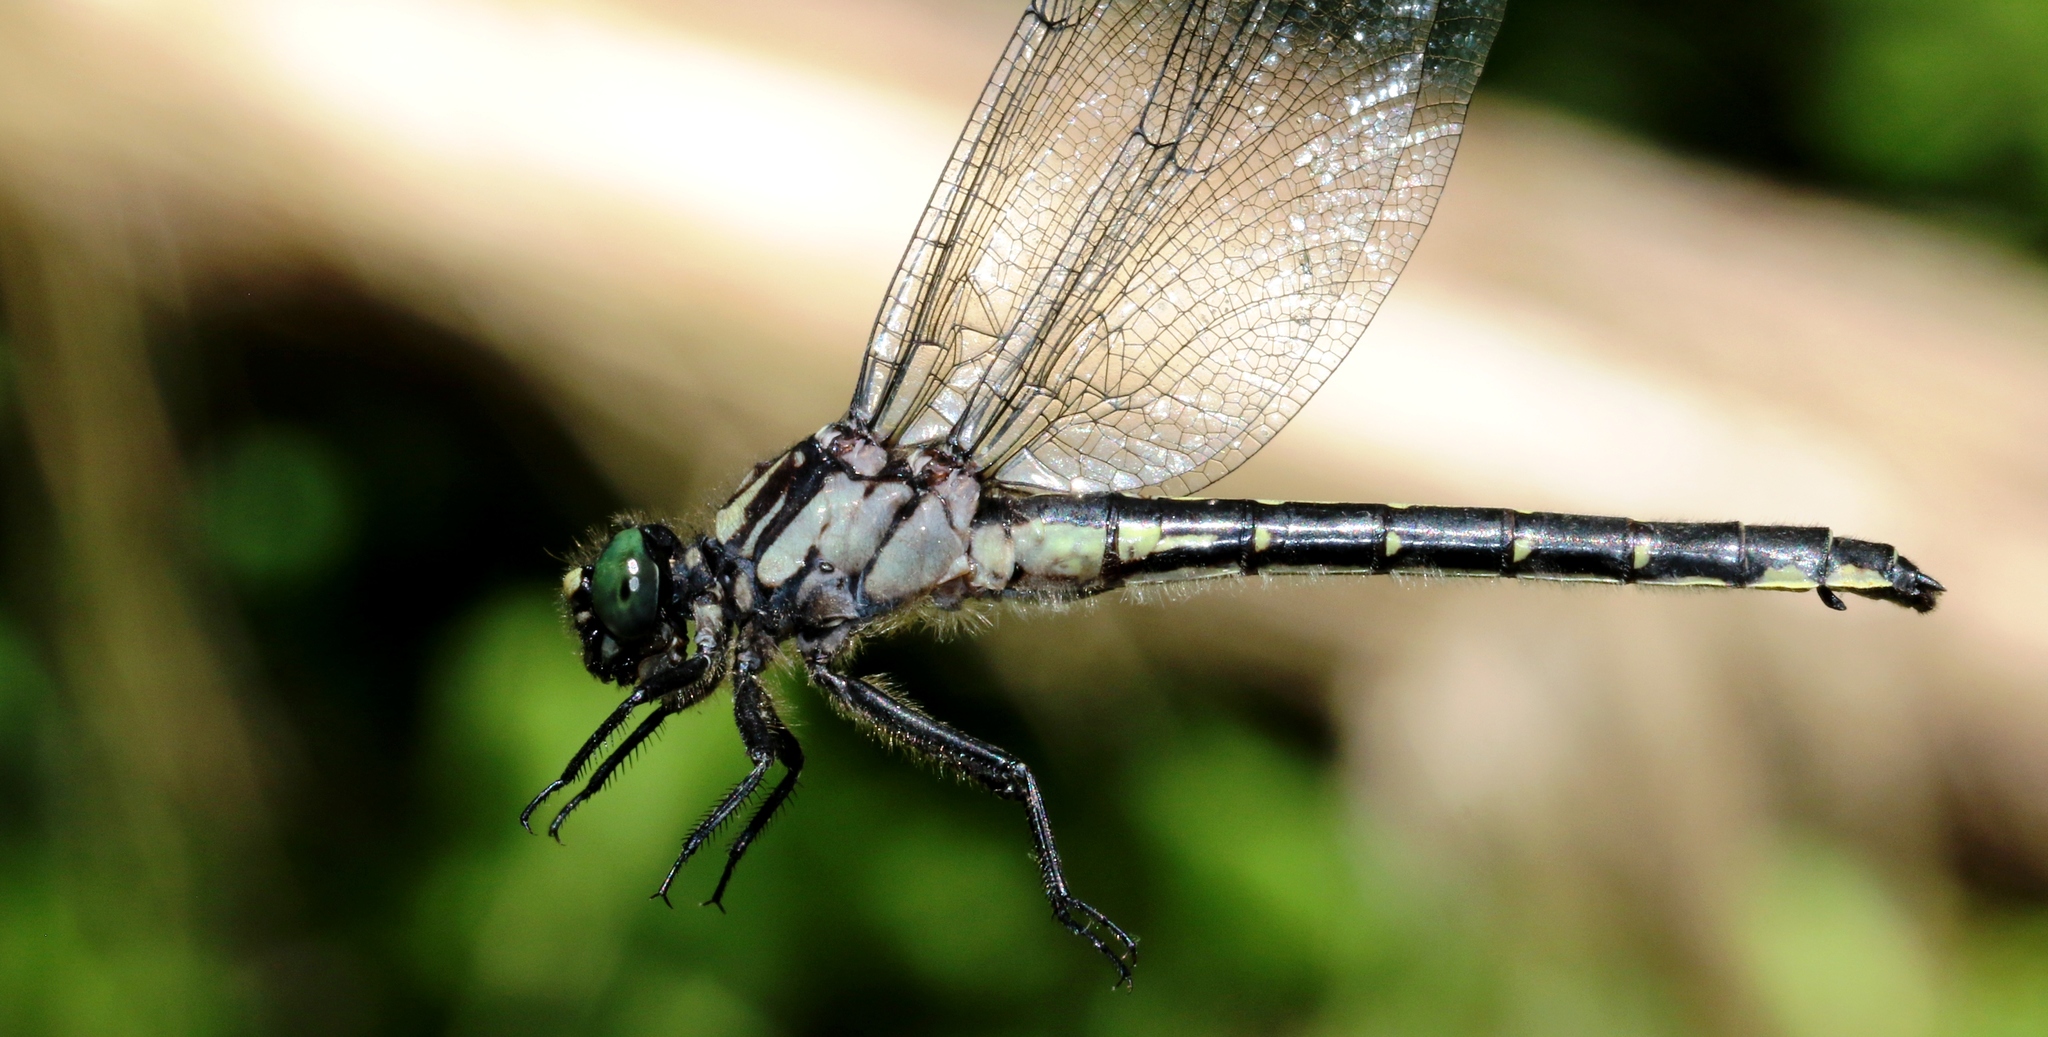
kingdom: Animalia
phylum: Arthropoda
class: Insecta
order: Odonata
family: Gomphidae
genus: Hylogomphus
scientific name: Hylogomphus adelphus
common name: Mustached clubtail
